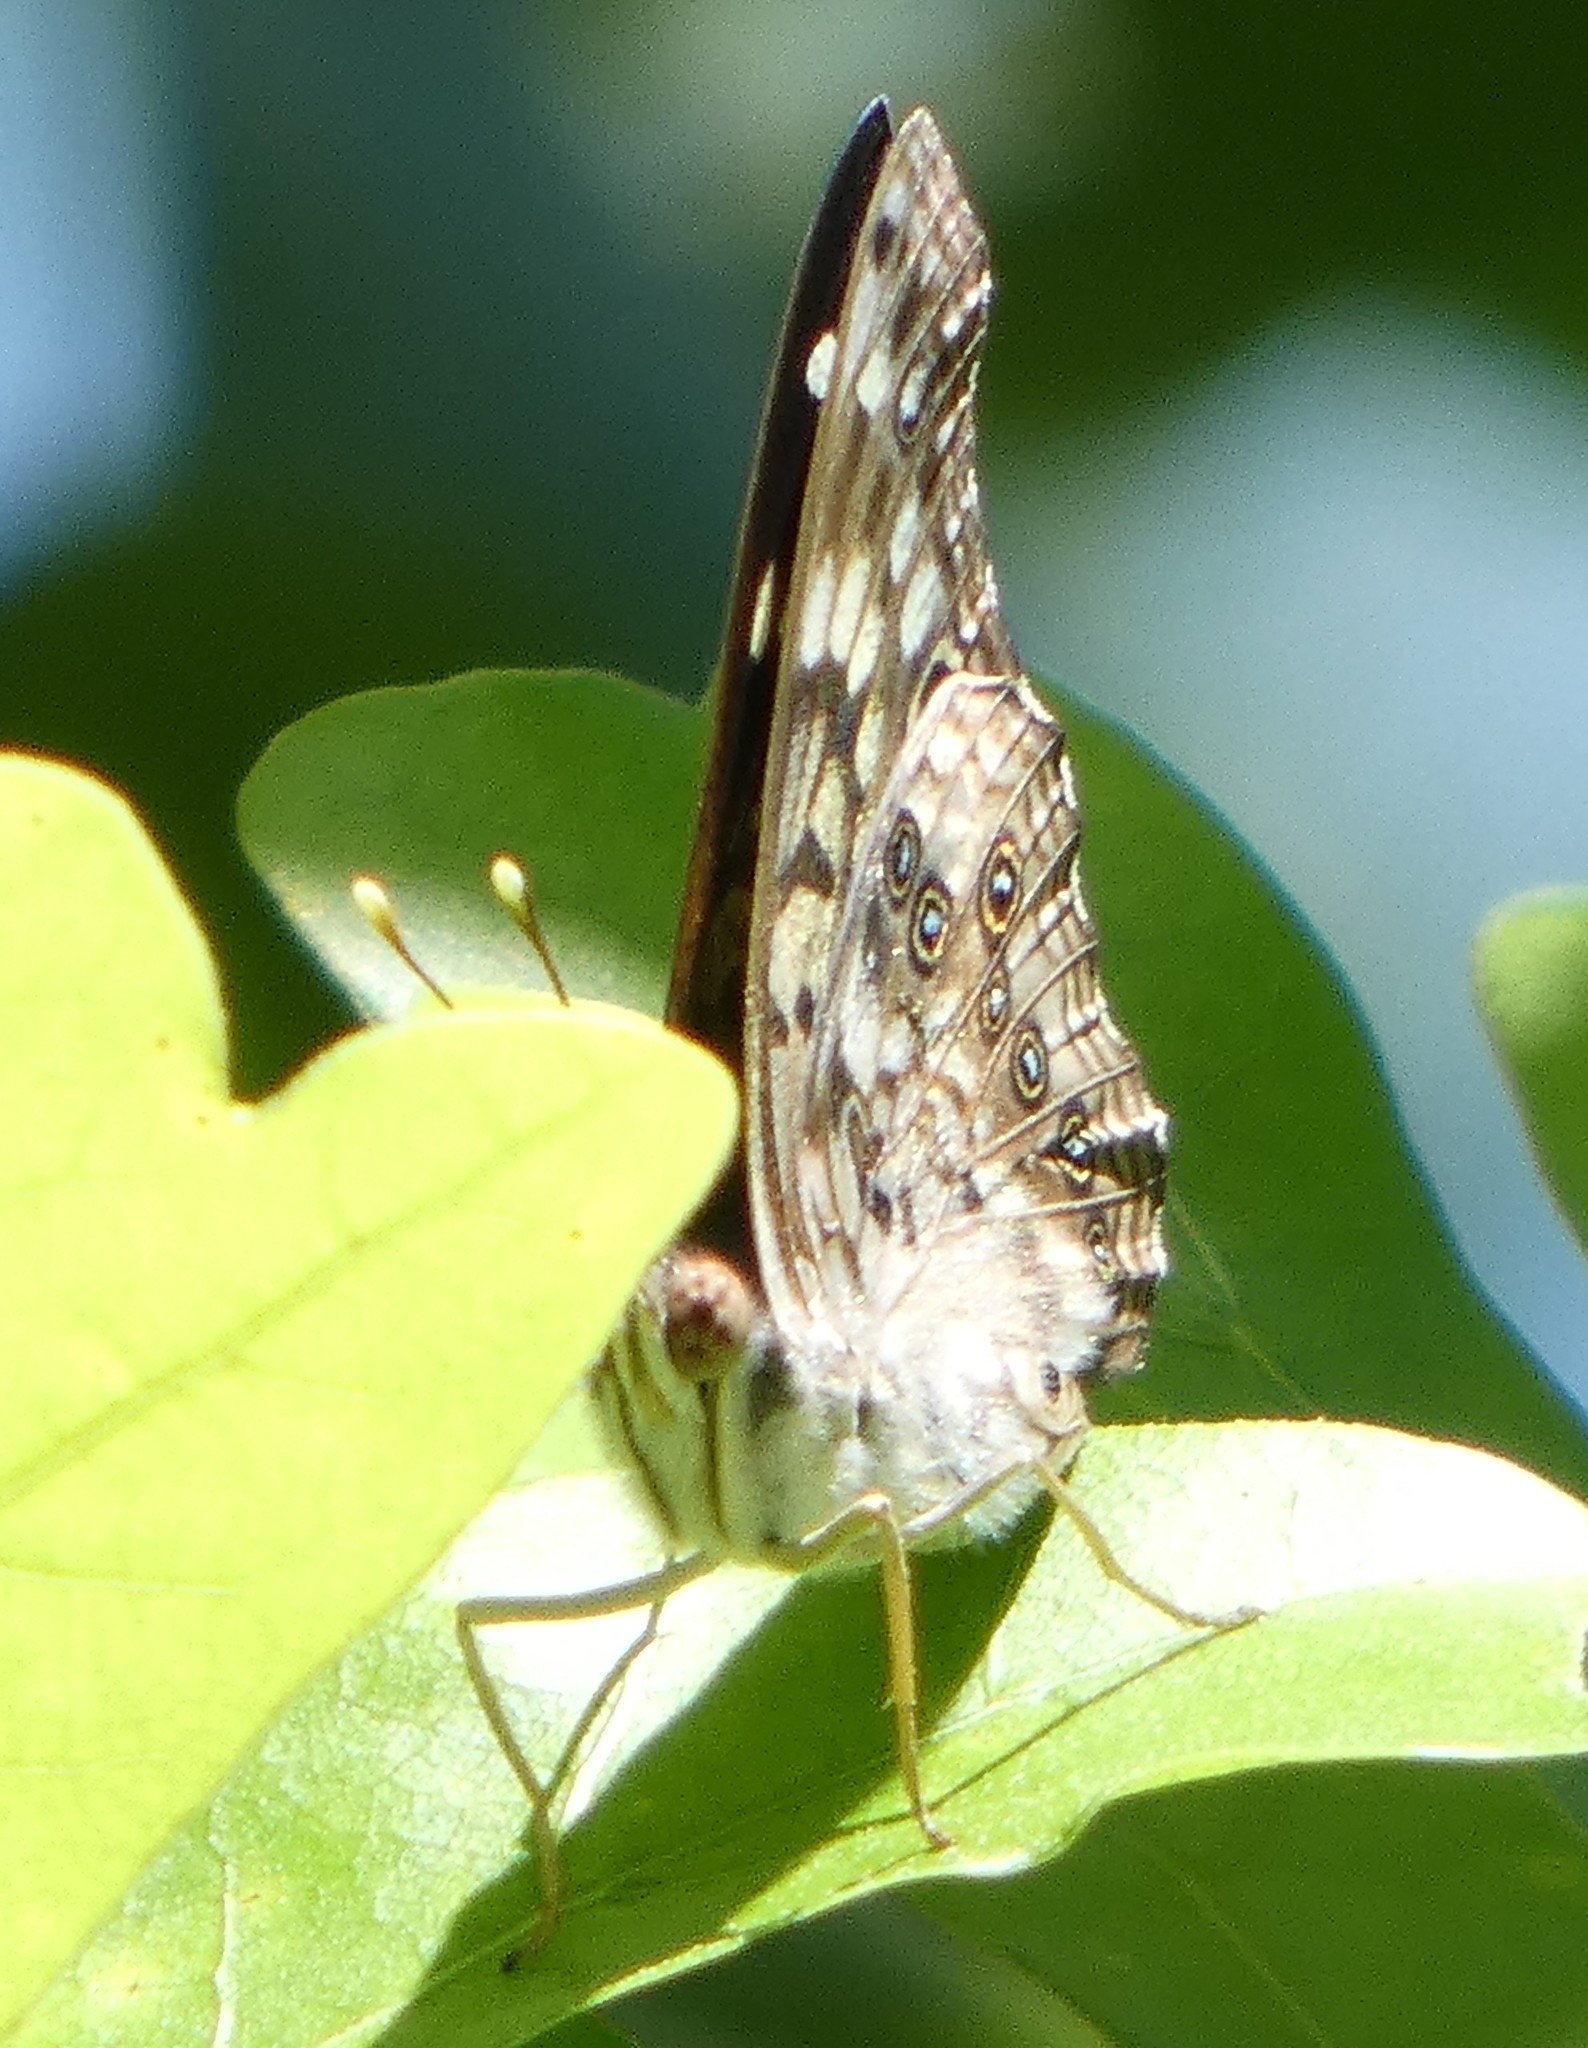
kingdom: Animalia
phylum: Arthropoda
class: Insecta
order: Lepidoptera
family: Nymphalidae
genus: Asterocampa
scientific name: Asterocampa celtis
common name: Hackberry emperor
